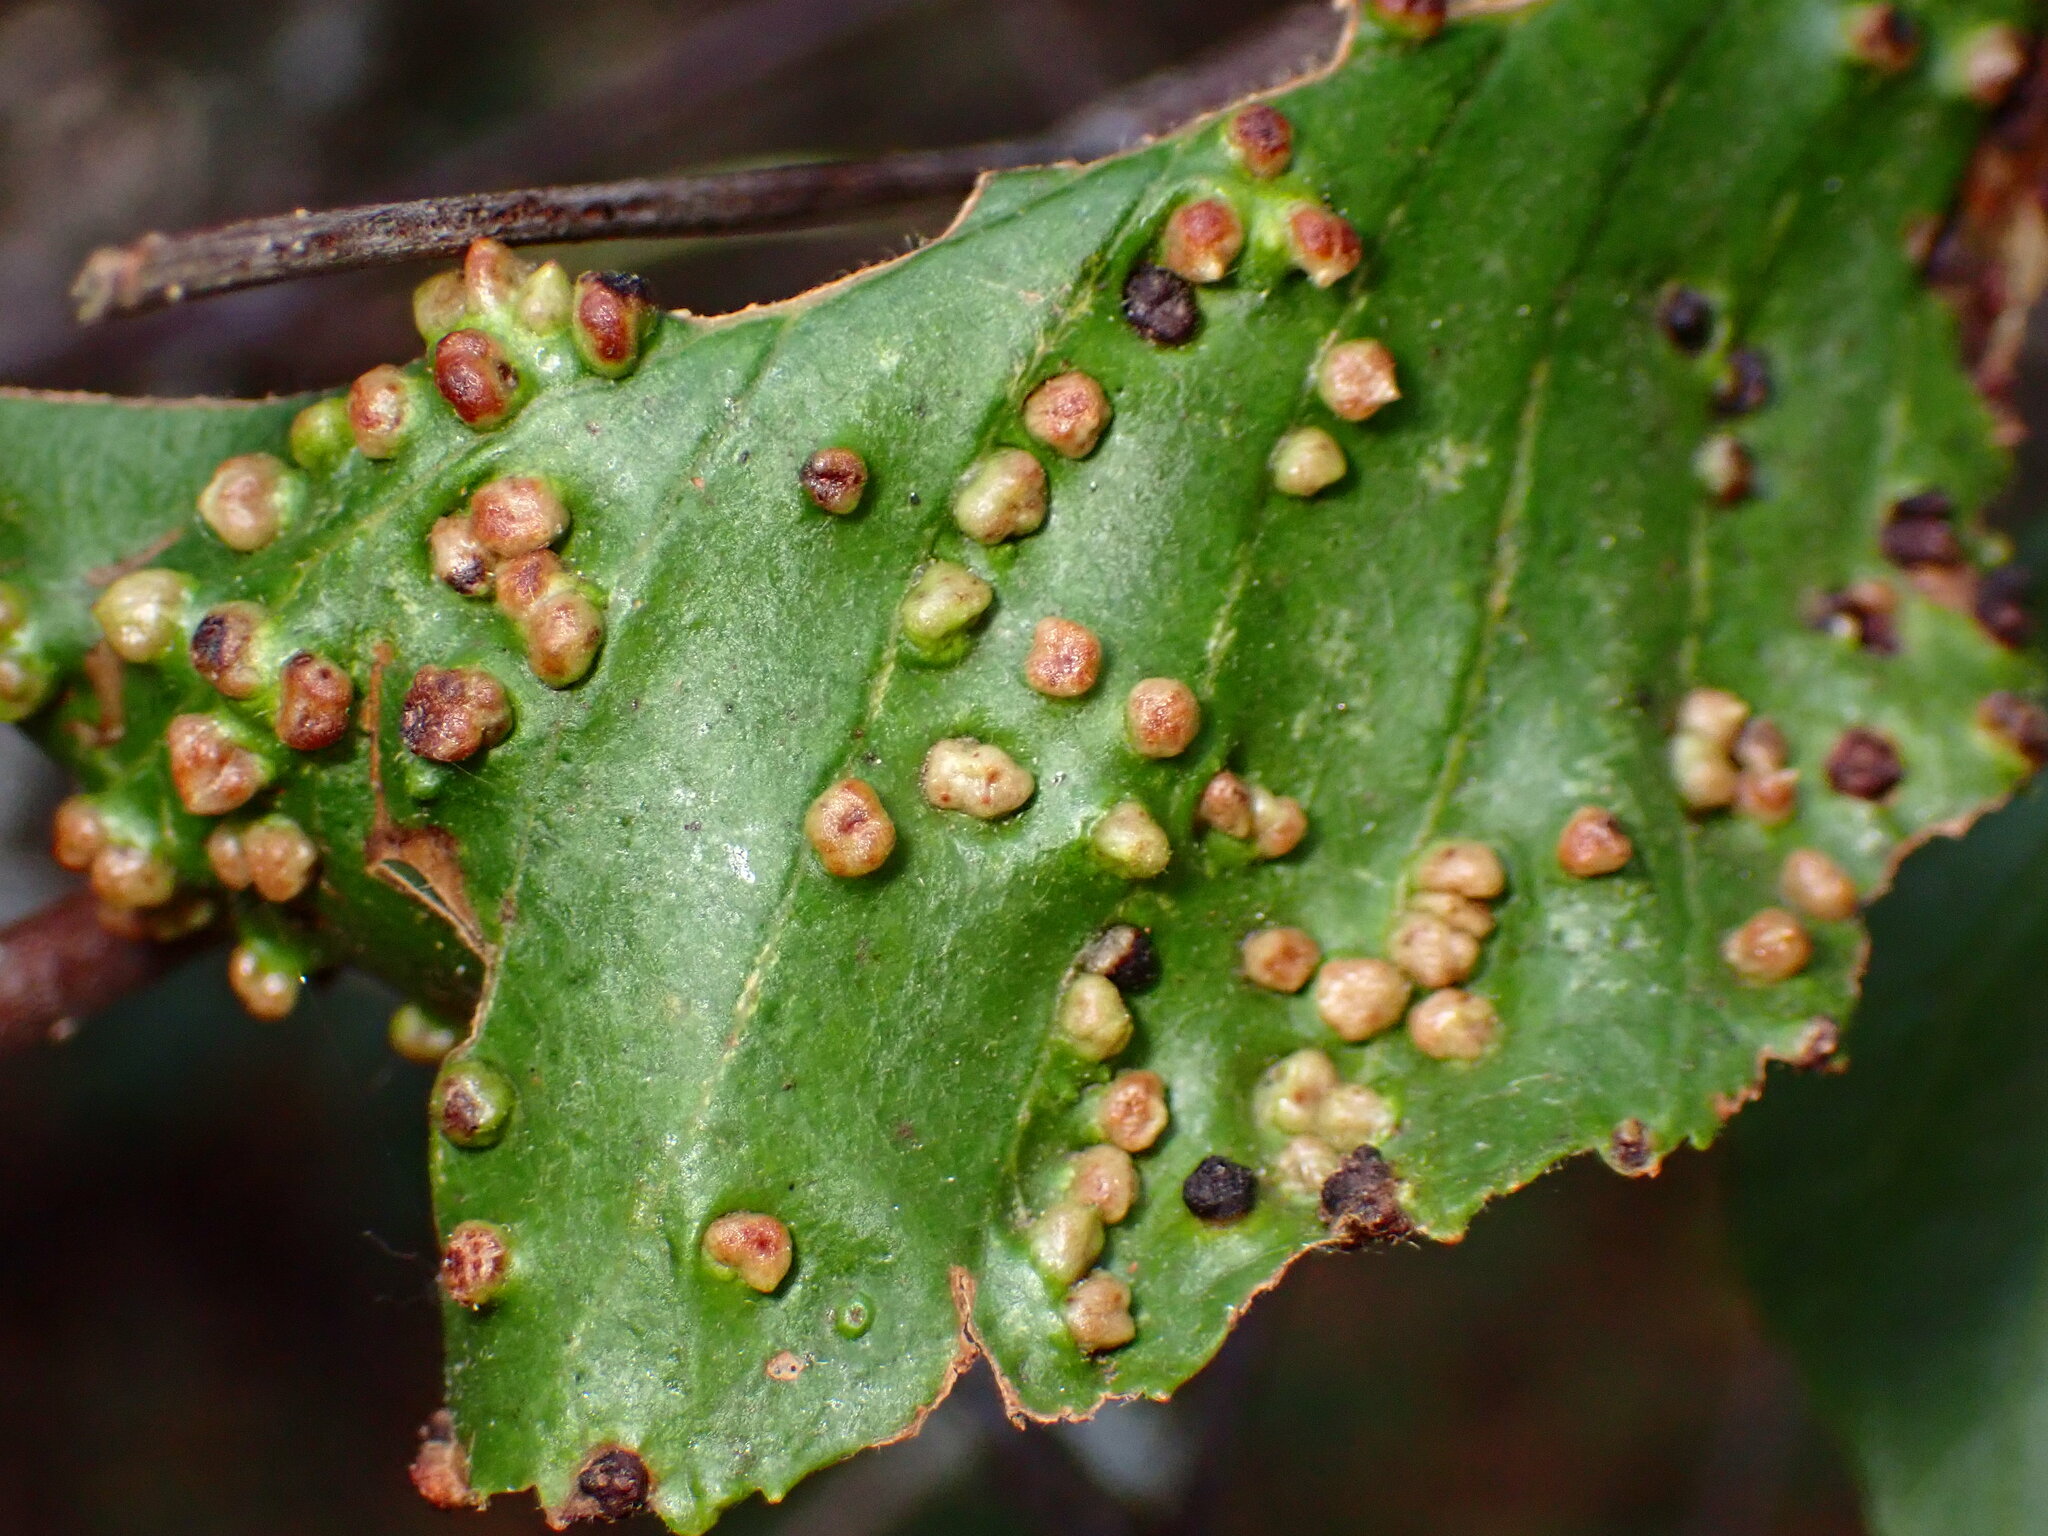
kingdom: Animalia
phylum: Arthropoda
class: Arachnida
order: Trombidiformes
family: Eriophyidae
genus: Eriophyes
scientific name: Eriophyes laevis
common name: Alder leaf gall mite
